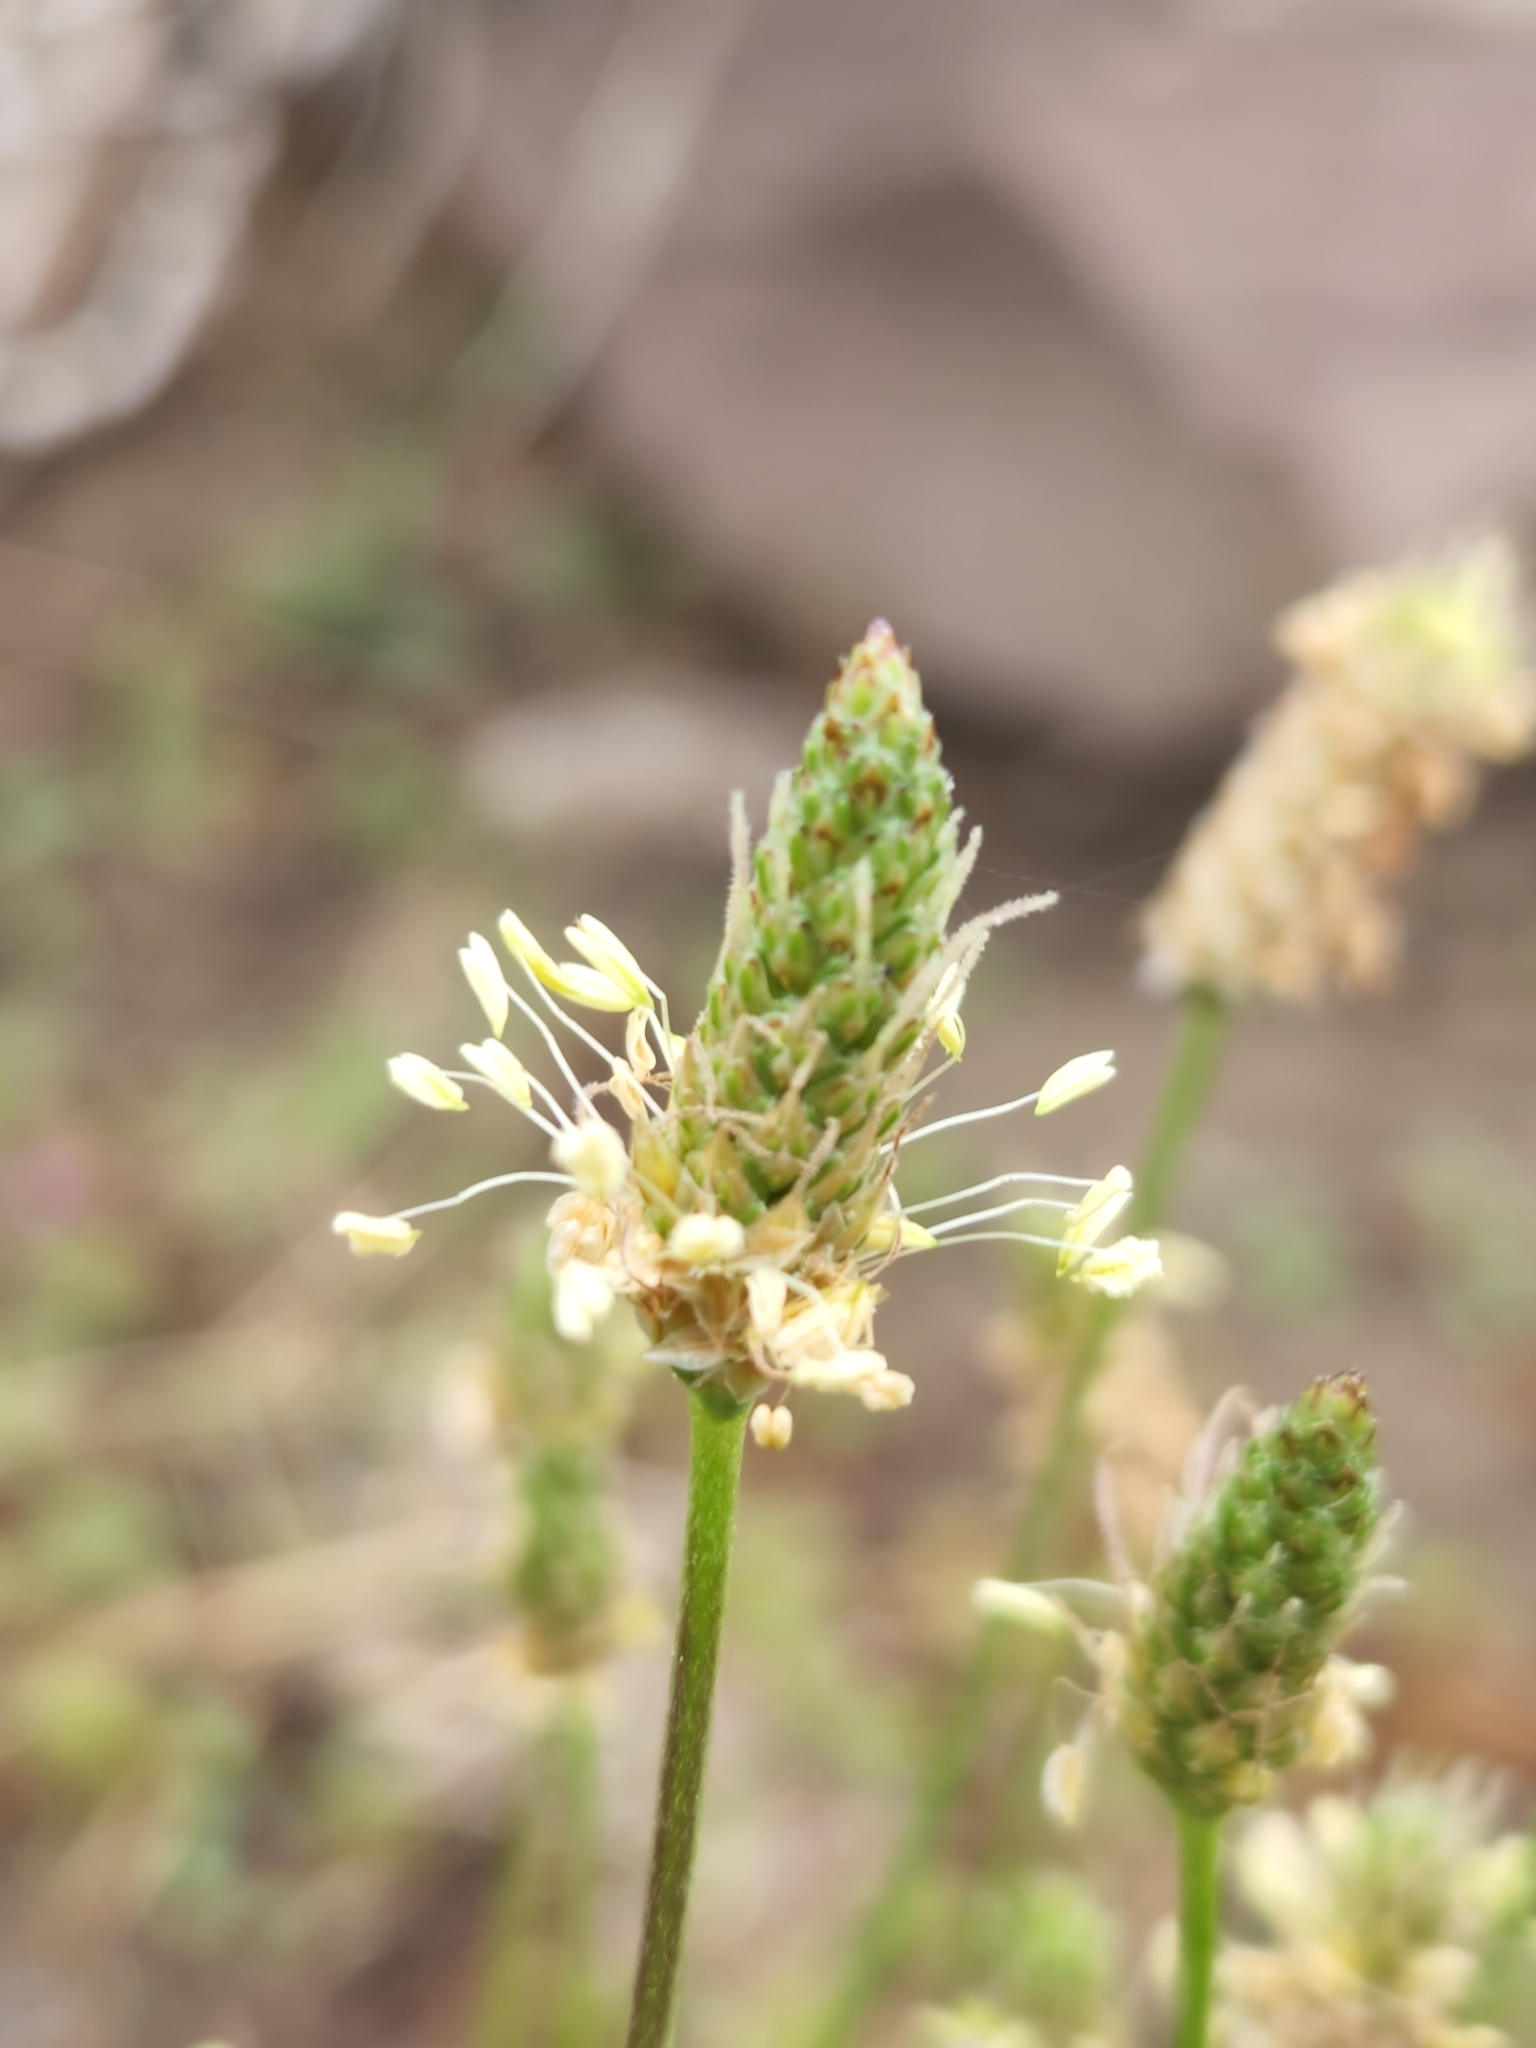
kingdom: Plantae
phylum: Tracheophyta
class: Magnoliopsida
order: Lamiales
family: Plantaginaceae
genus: Plantago
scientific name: Plantago lanceolata
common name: Ribwort plantain
